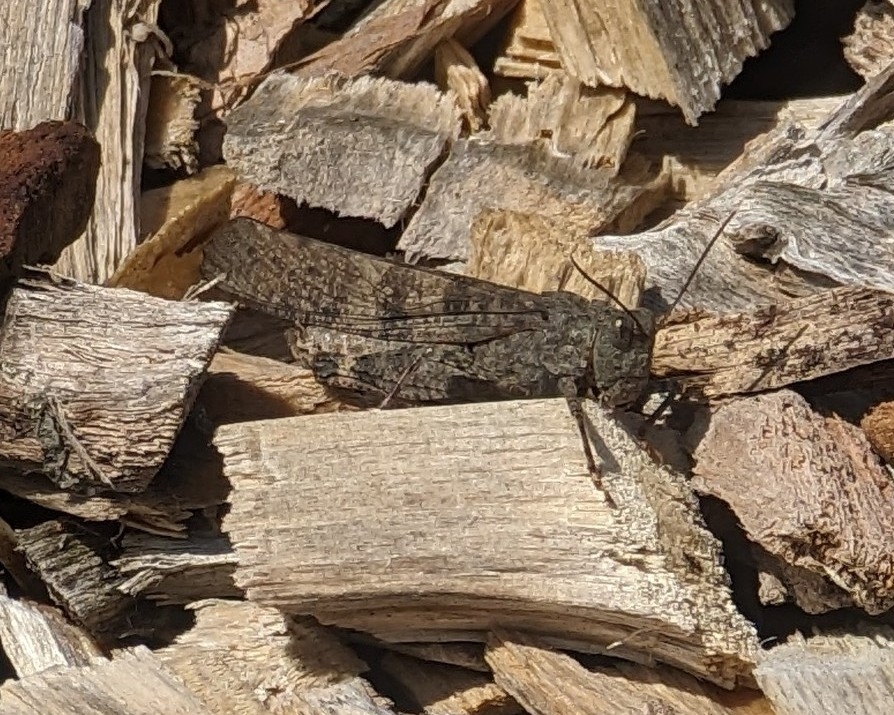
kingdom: Animalia
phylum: Arthropoda
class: Insecta
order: Orthoptera
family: Acrididae
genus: Dissosteira
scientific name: Dissosteira carolina
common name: Carolina grasshopper
